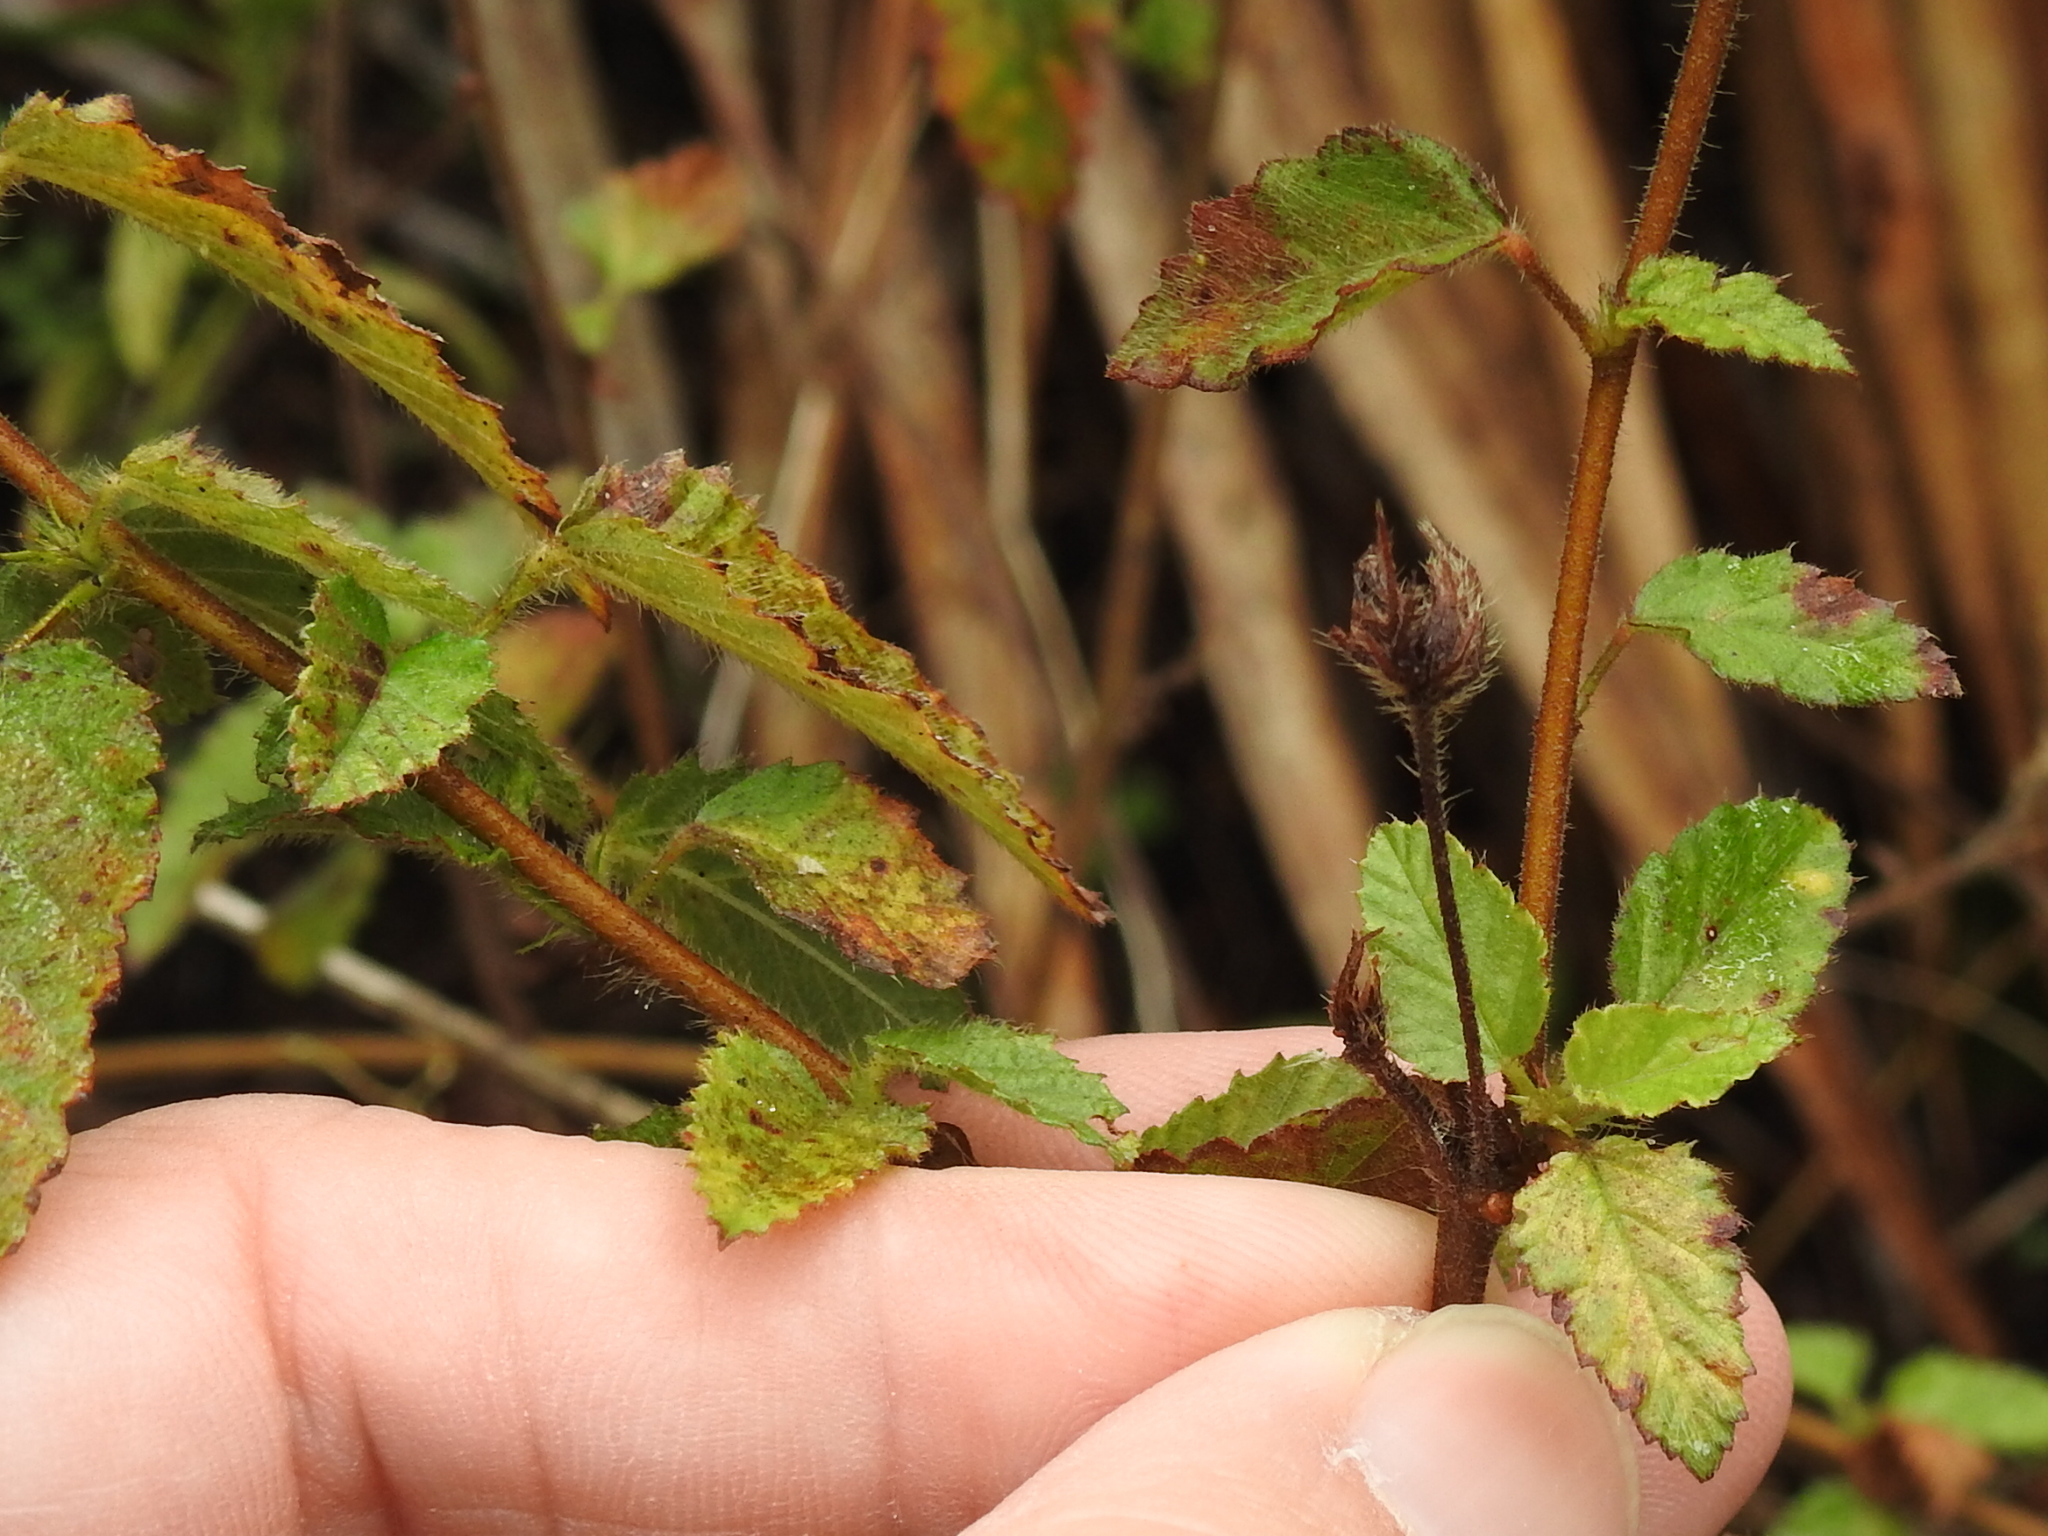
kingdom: Plantae
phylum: Tracheophyta
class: Magnoliopsida
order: Malvales
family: Malvaceae
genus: Melochia
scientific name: Melochia spicata
